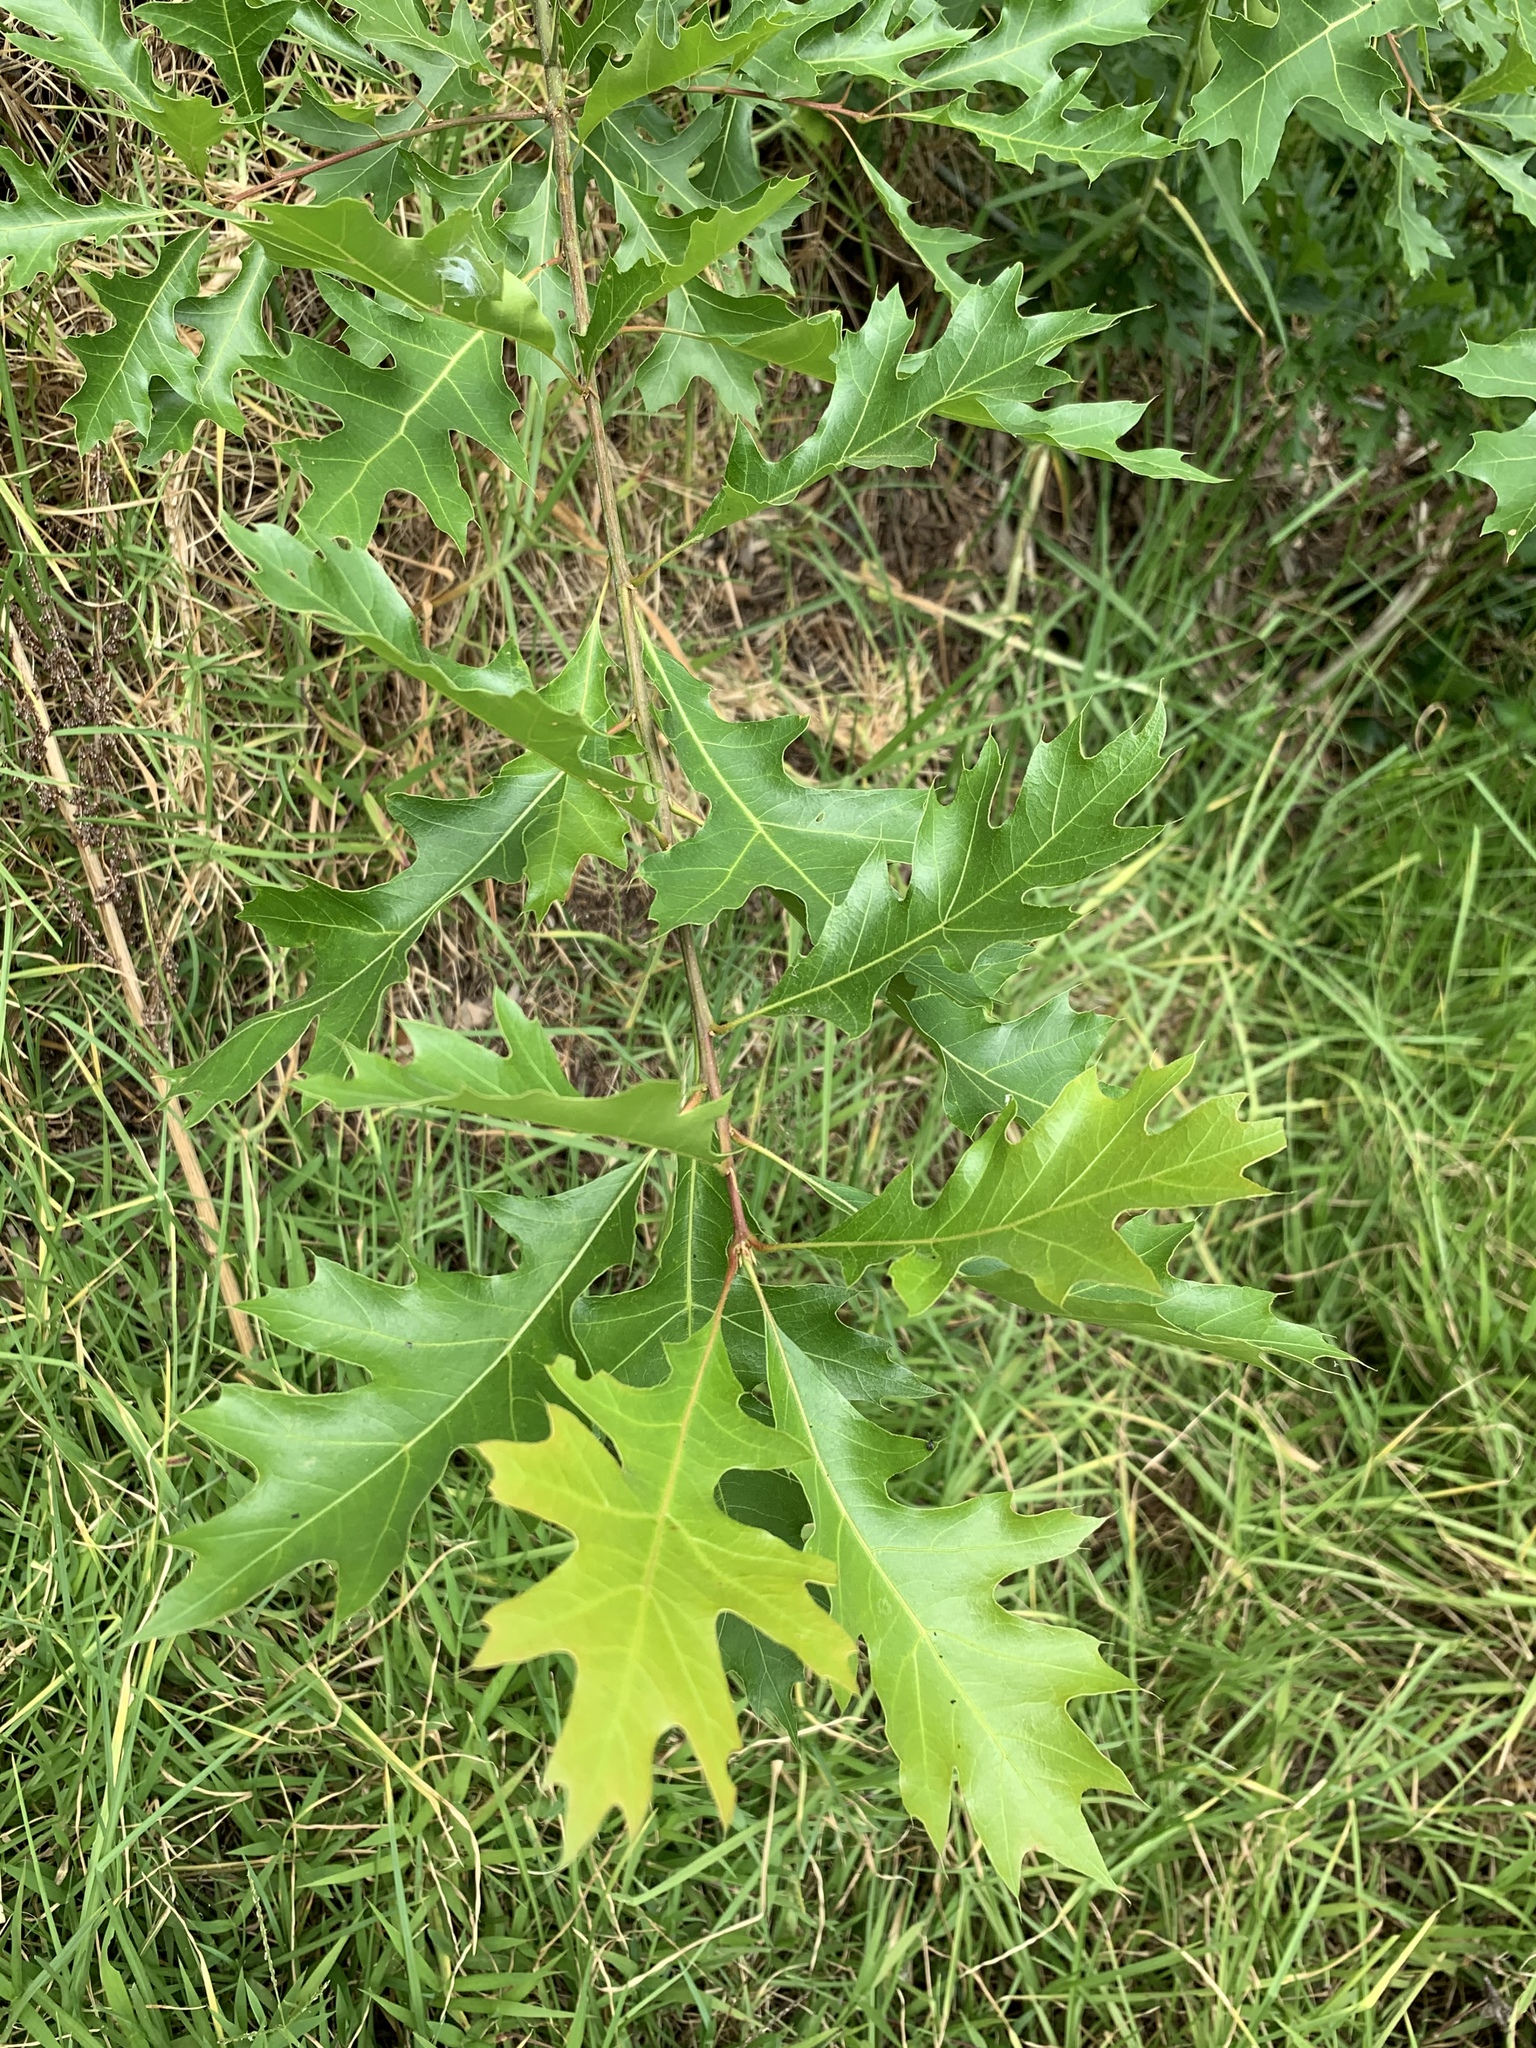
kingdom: Plantae
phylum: Tracheophyta
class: Magnoliopsida
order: Fagales
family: Fagaceae
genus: Quercus
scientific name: Quercus palustris
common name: Pin oak
